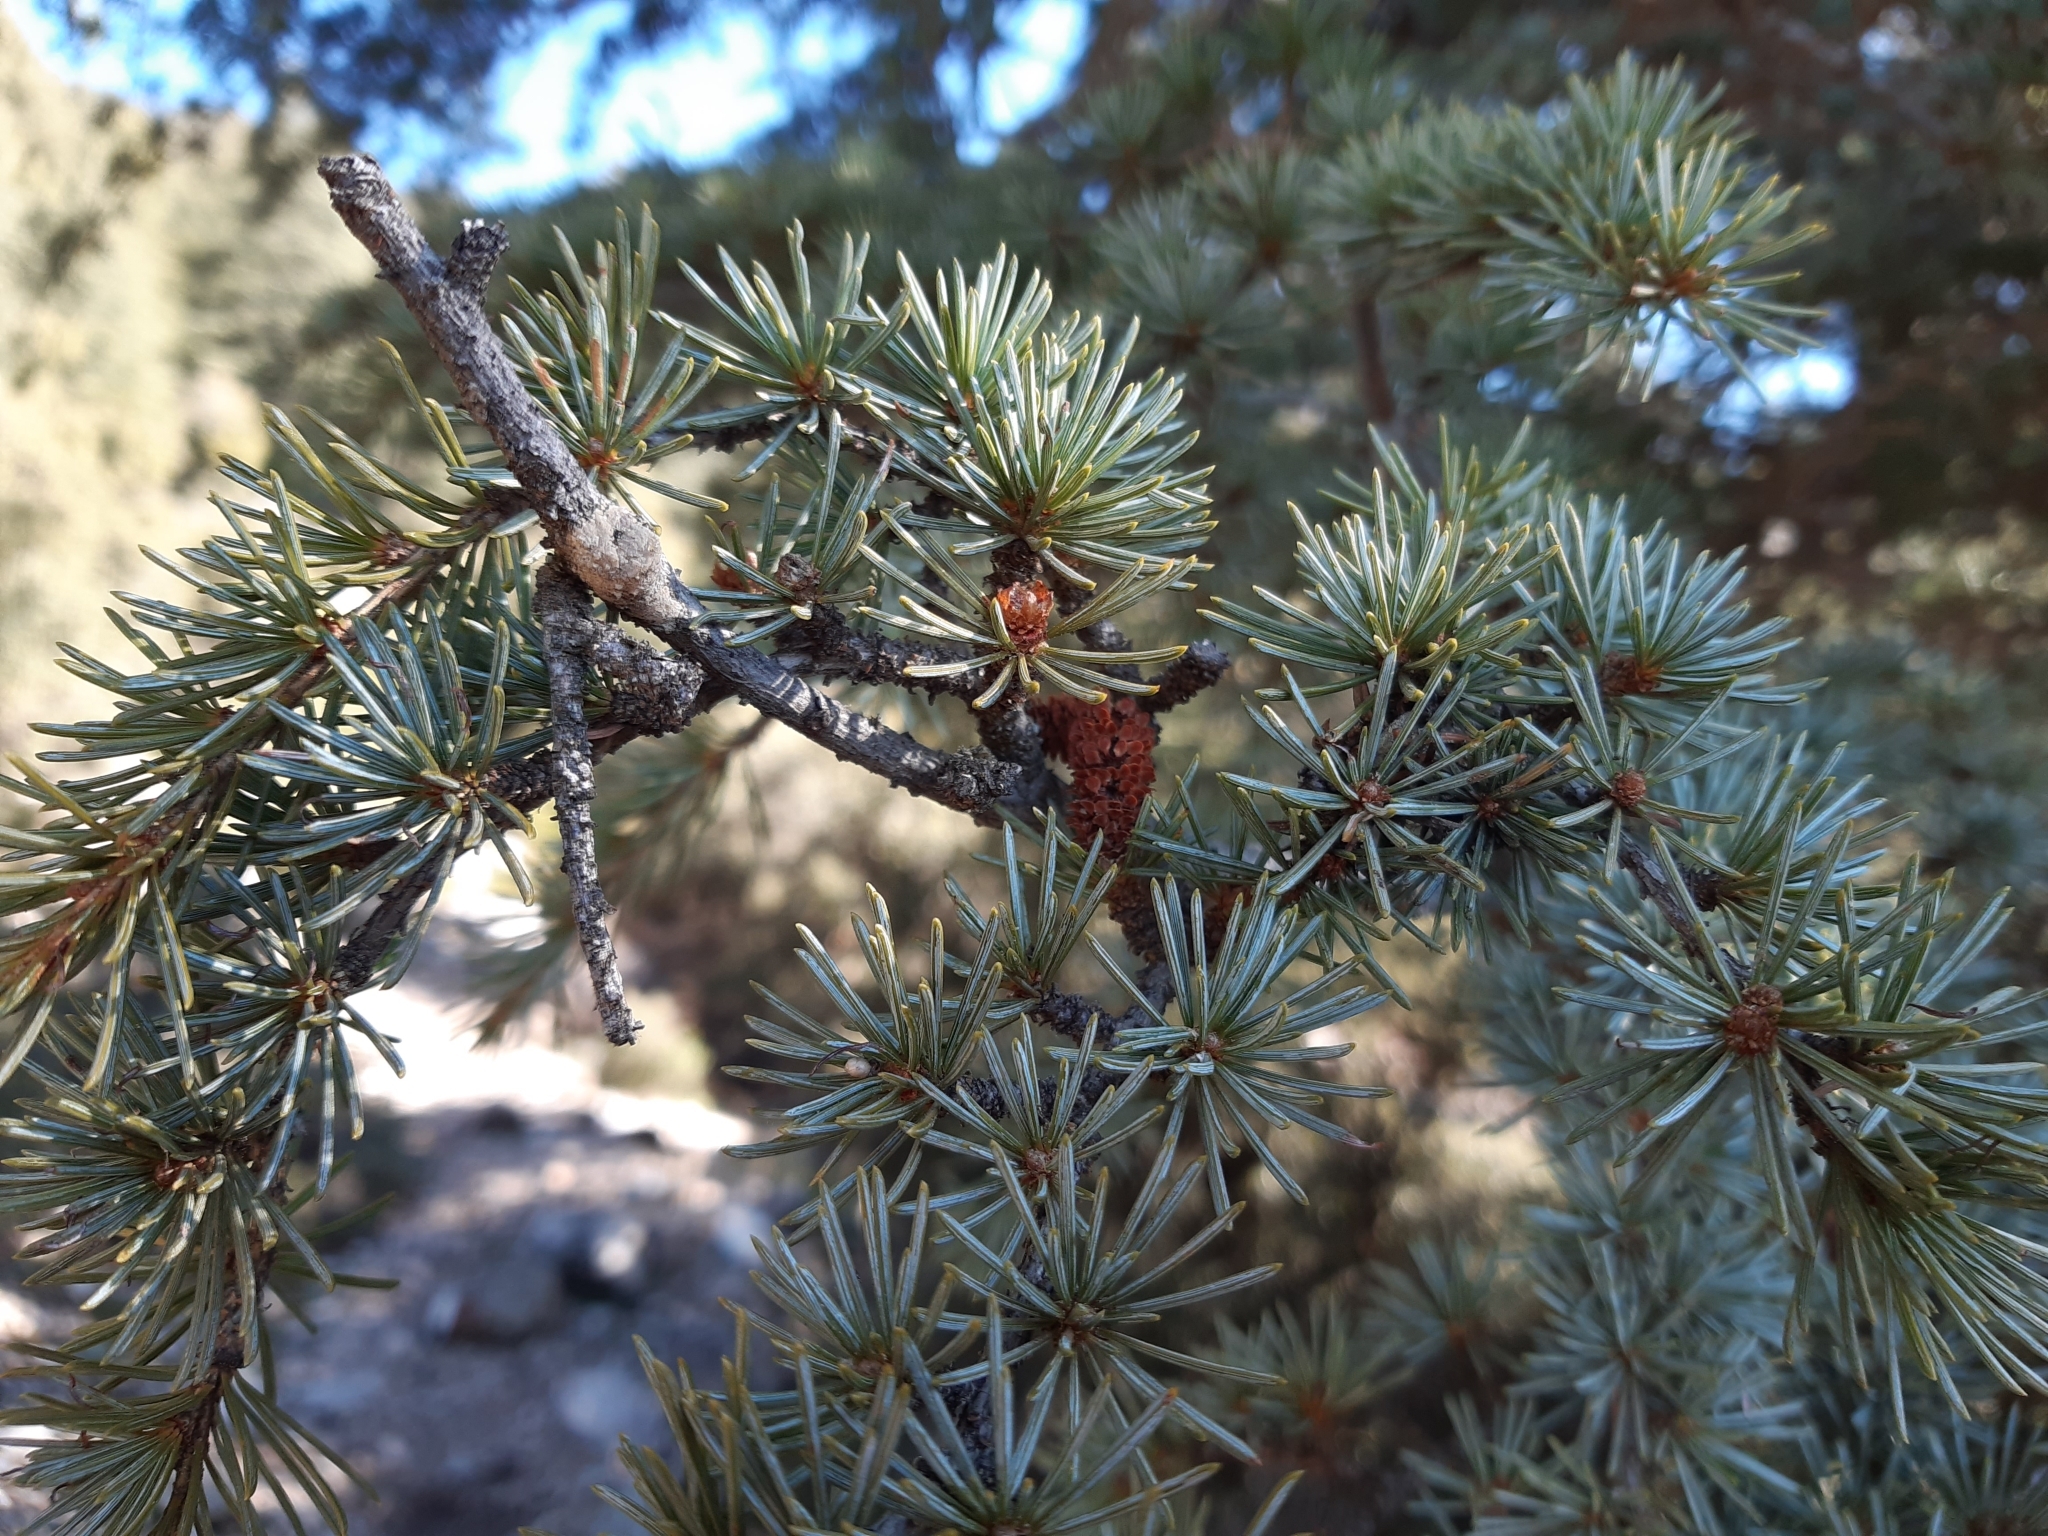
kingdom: Plantae
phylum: Tracheophyta
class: Pinopsida
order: Pinales
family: Pinaceae
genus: Cedrus
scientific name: Cedrus libani
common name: Cedar-of-lebanon
